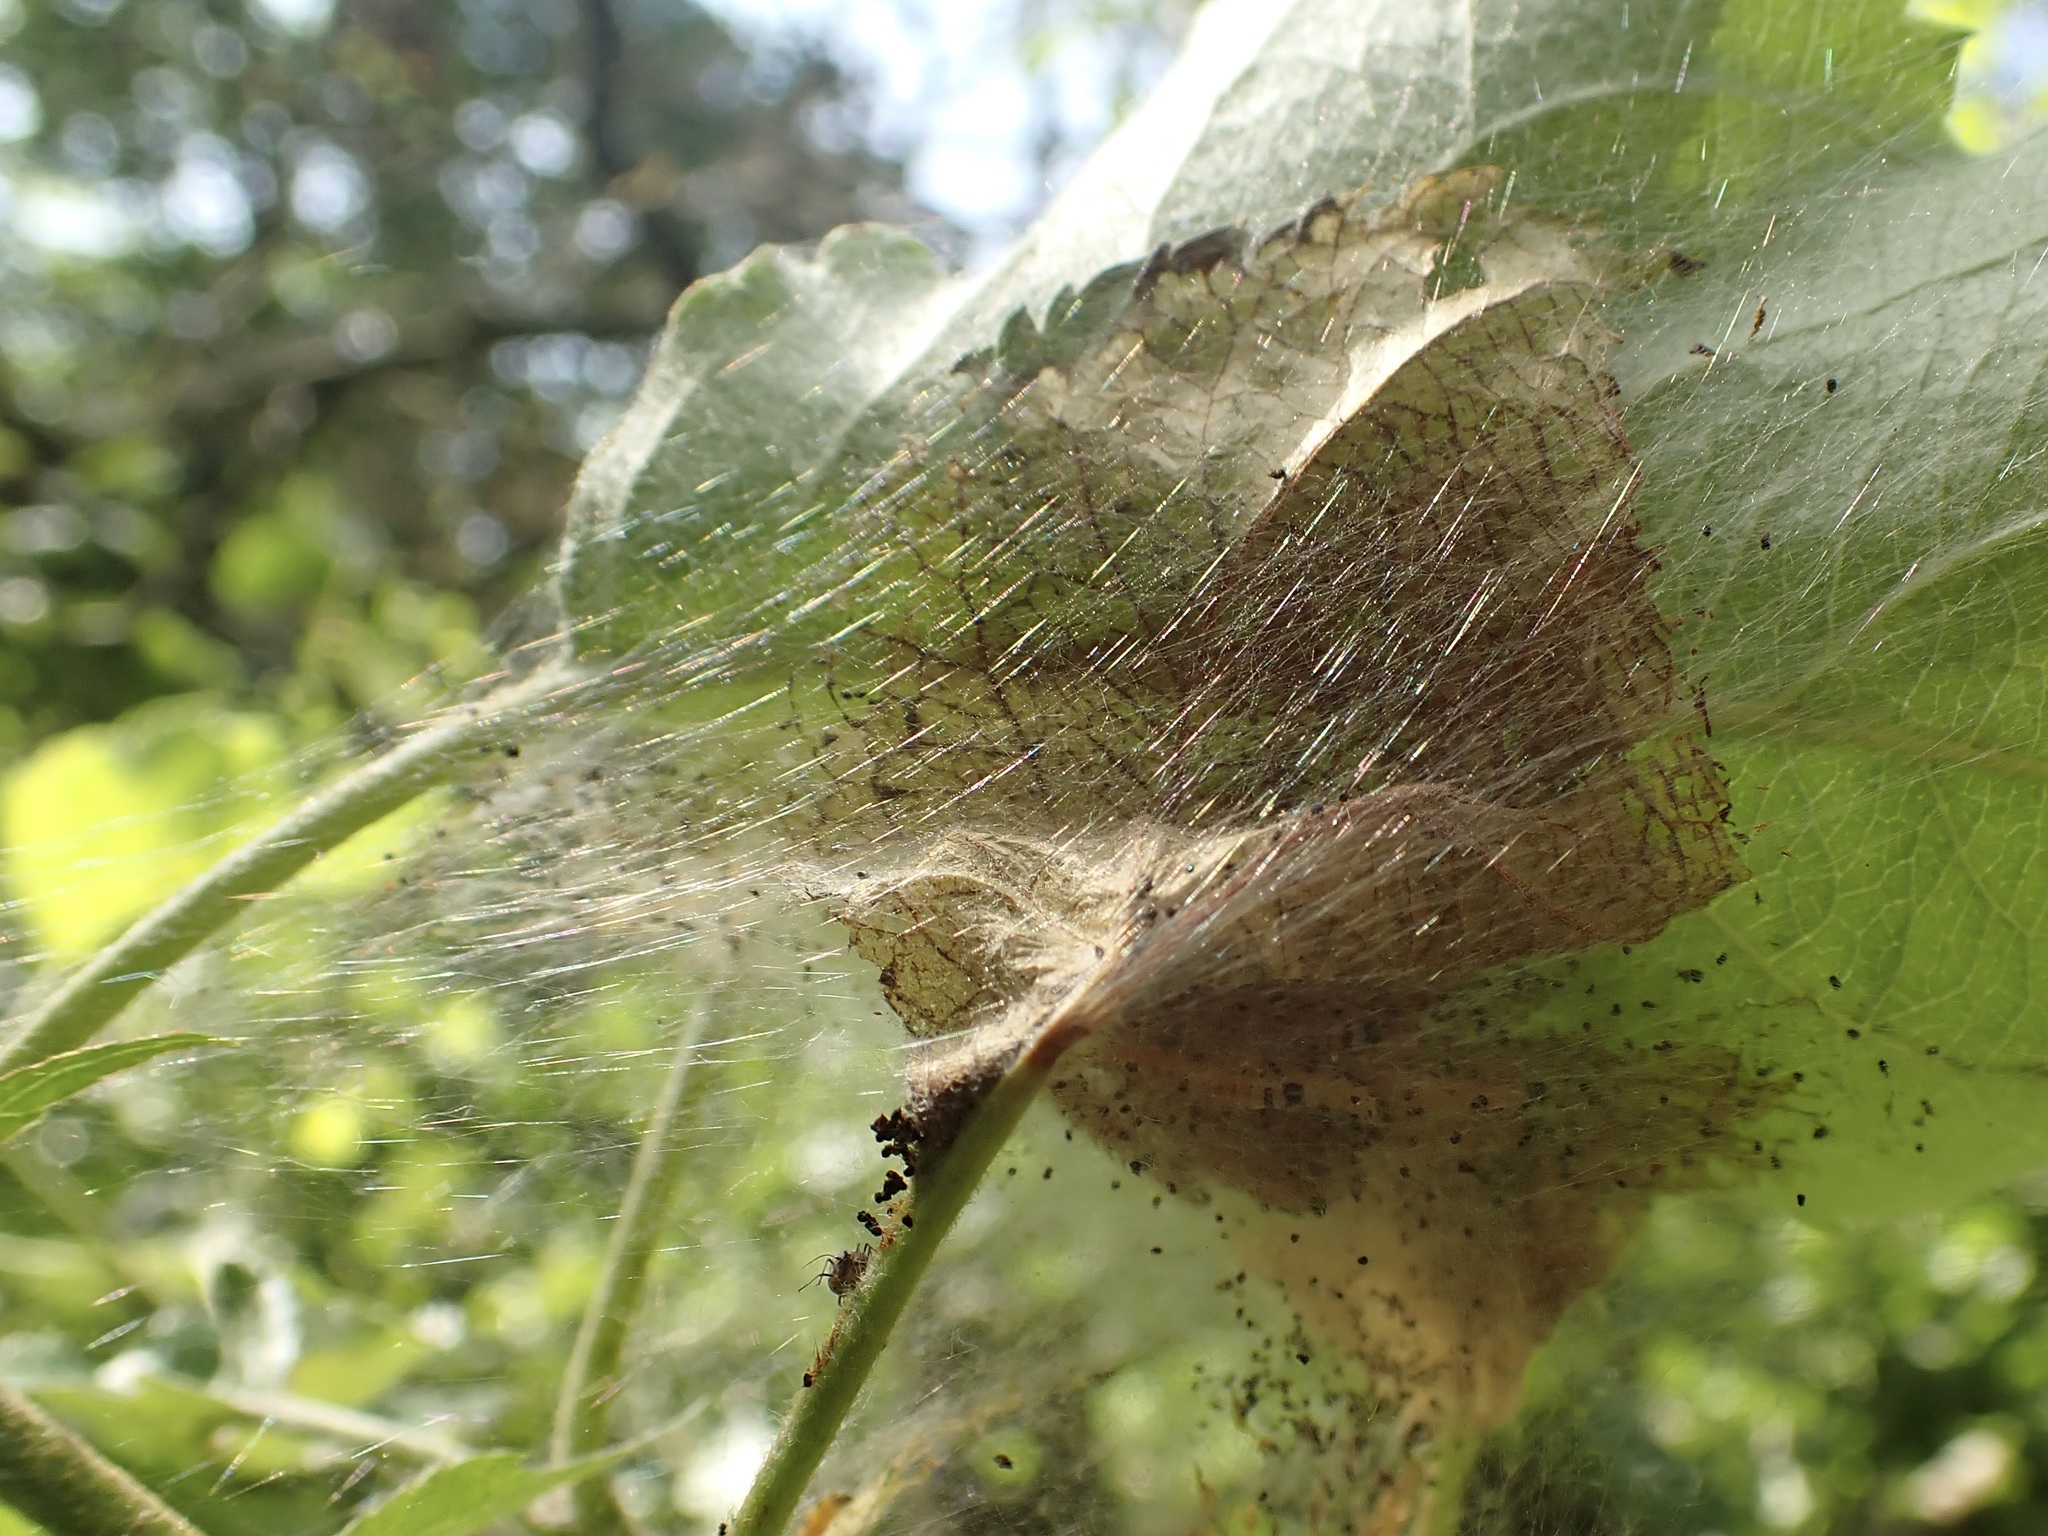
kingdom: Animalia
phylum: Arthropoda
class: Insecta
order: Lepidoptera
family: Yponomeutidae
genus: Yponomeuta
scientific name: Yponomeuta padella
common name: Orchard ermine
